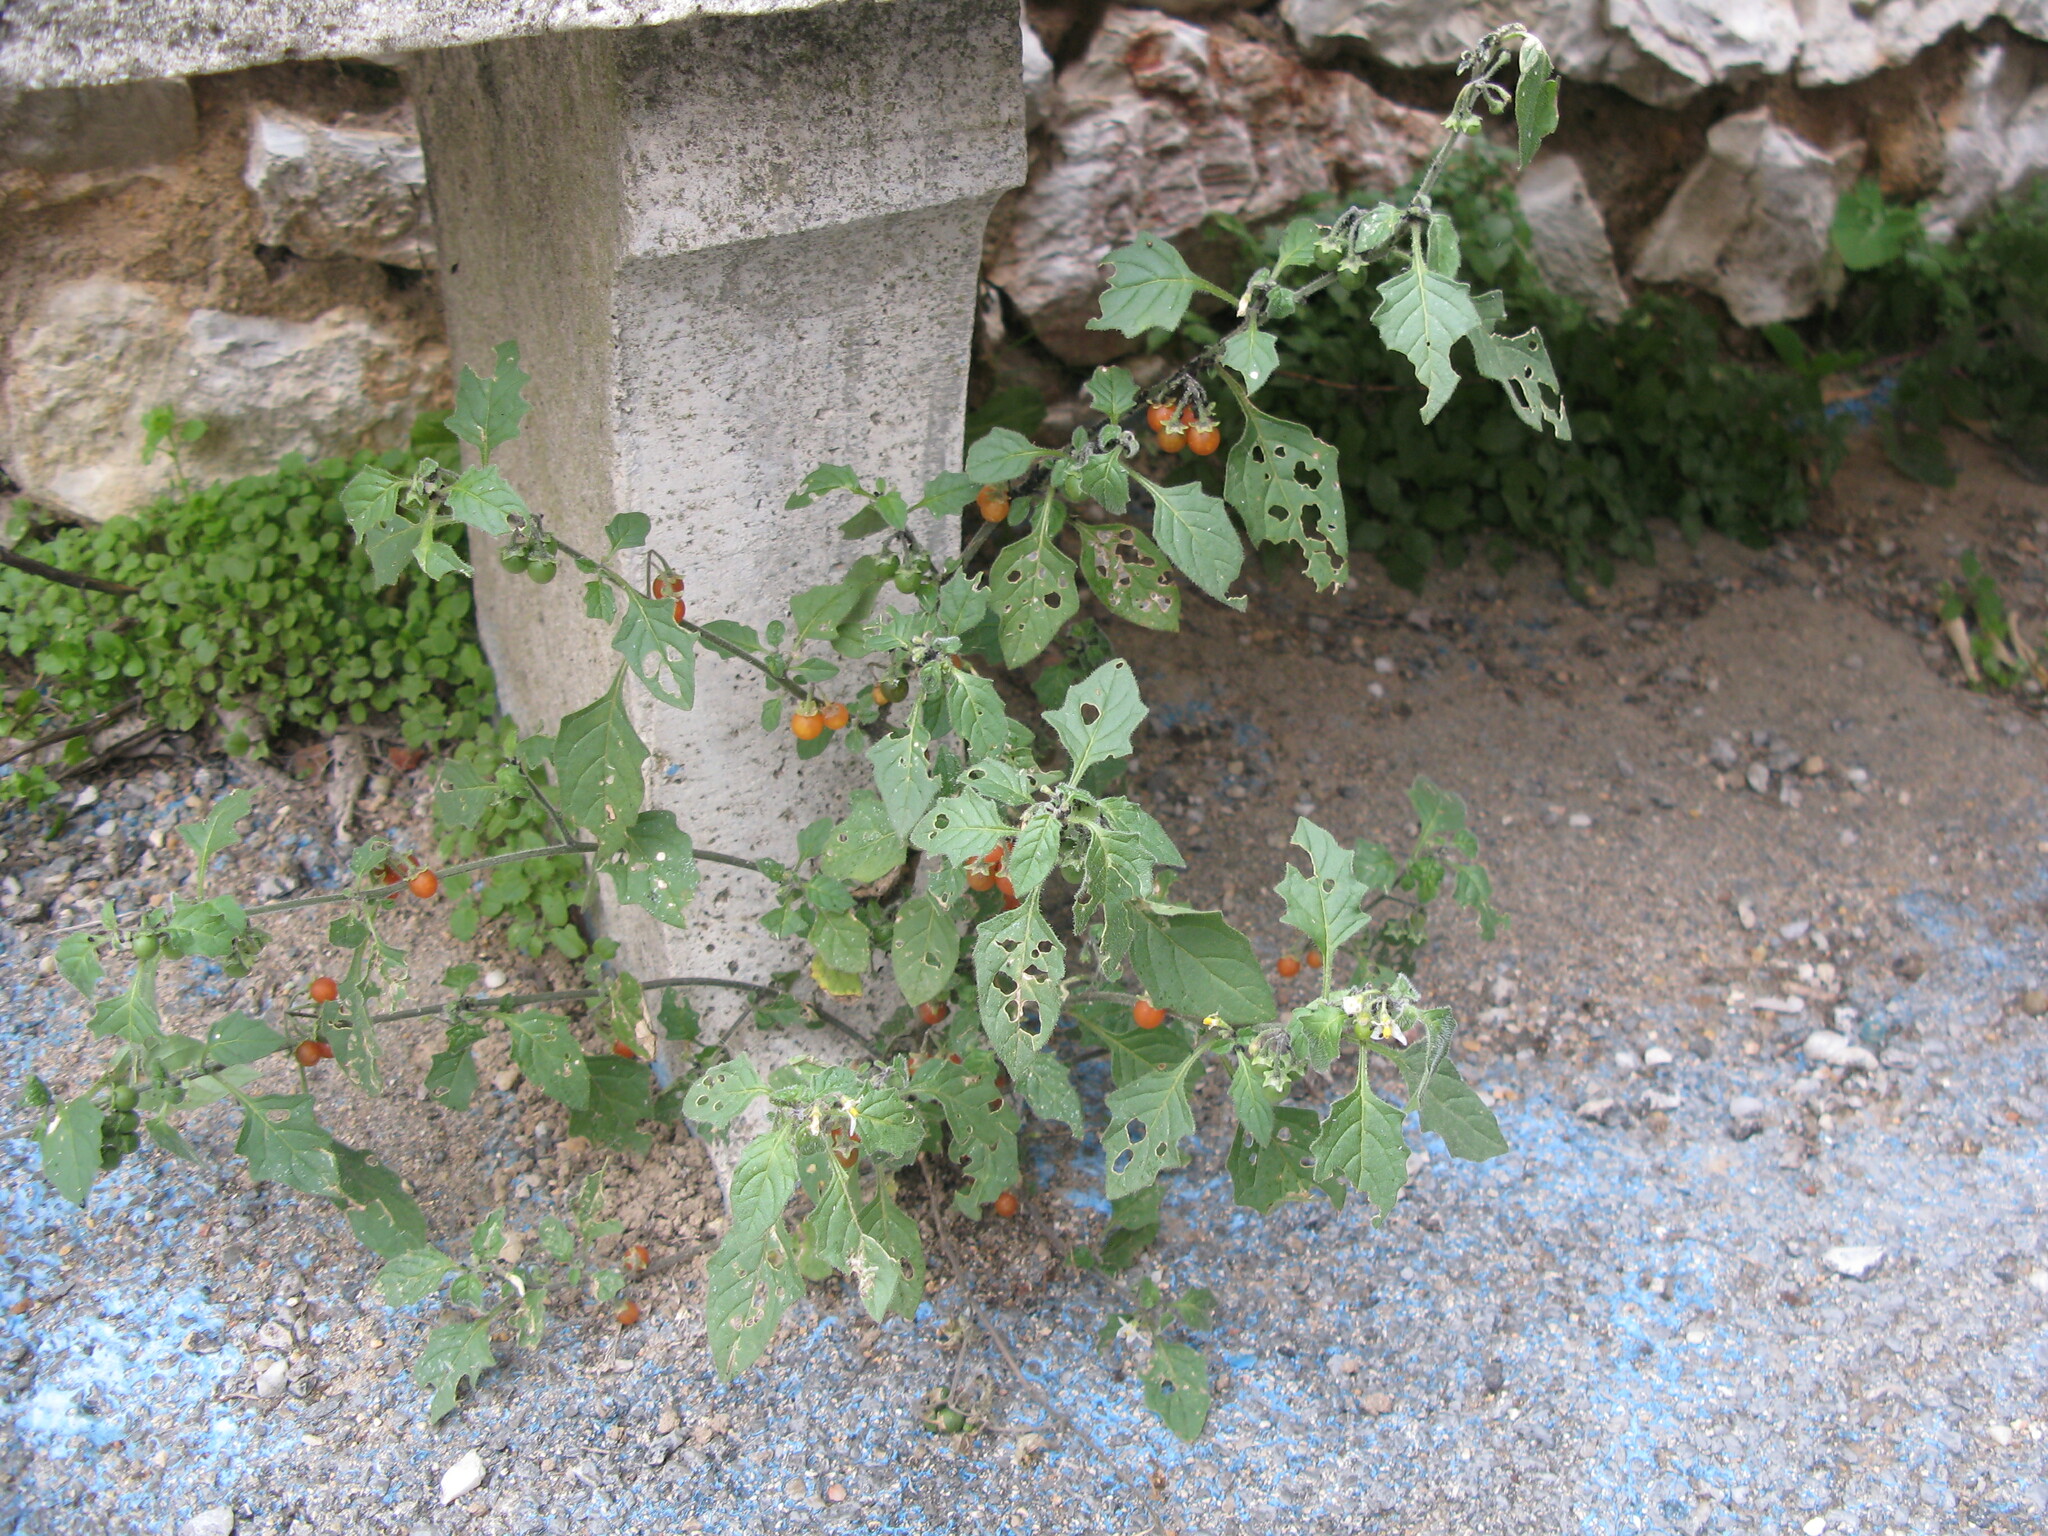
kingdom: Plantae
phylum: Tracheophyta
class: Magnoliopsida
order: Solanales
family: Solanaceae
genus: Solanum
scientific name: Solanum villosum
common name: Red nightshade
